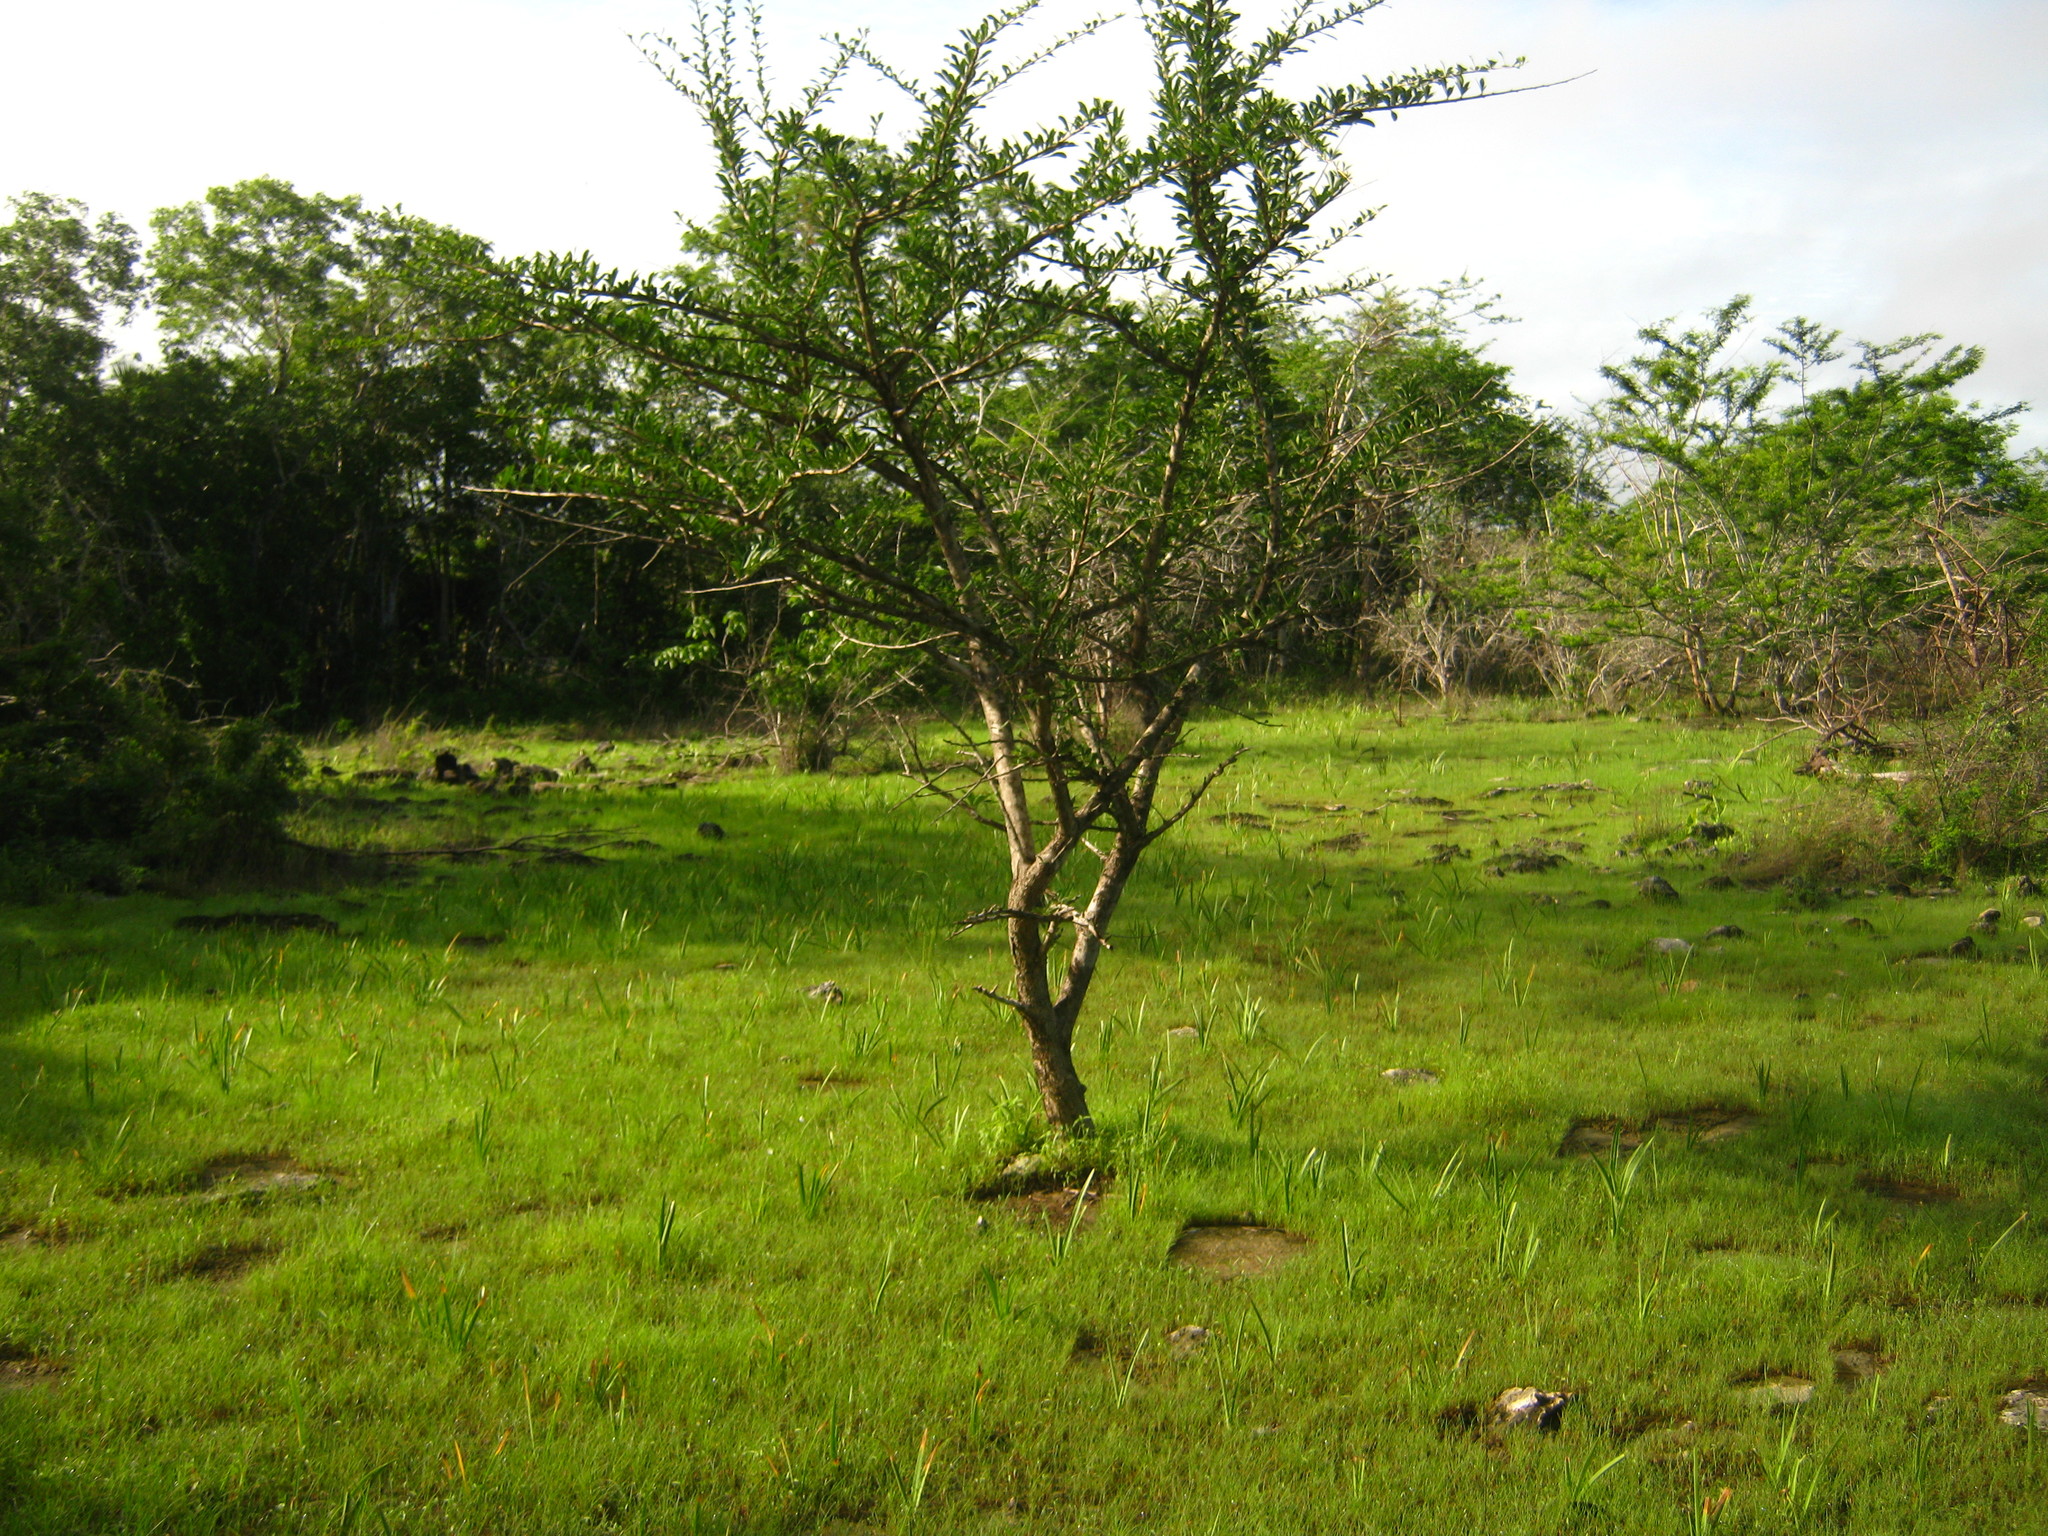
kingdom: Plantae
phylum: Tracheophyta
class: Magnoliopsida
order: Lamiales
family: Bignoniaceae
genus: Crescentia
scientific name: Crescentia cujete
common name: Calabash
